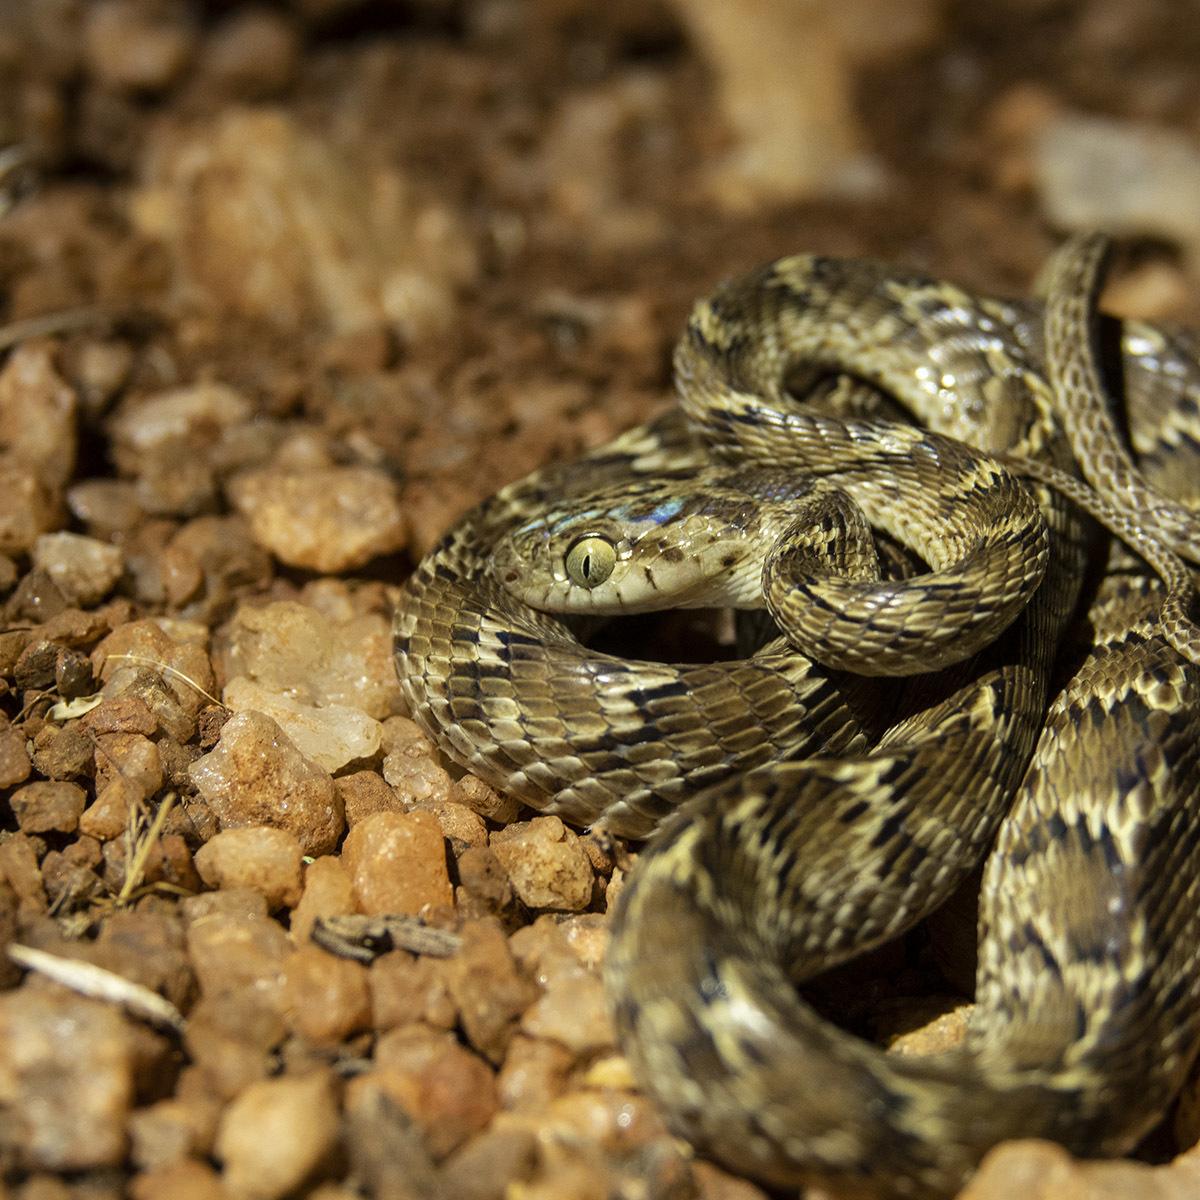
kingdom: Animalia
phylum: Chordata
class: Squamata
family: Colubridae
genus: Boiga
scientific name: Boiga trigonata
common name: Common cat snake
